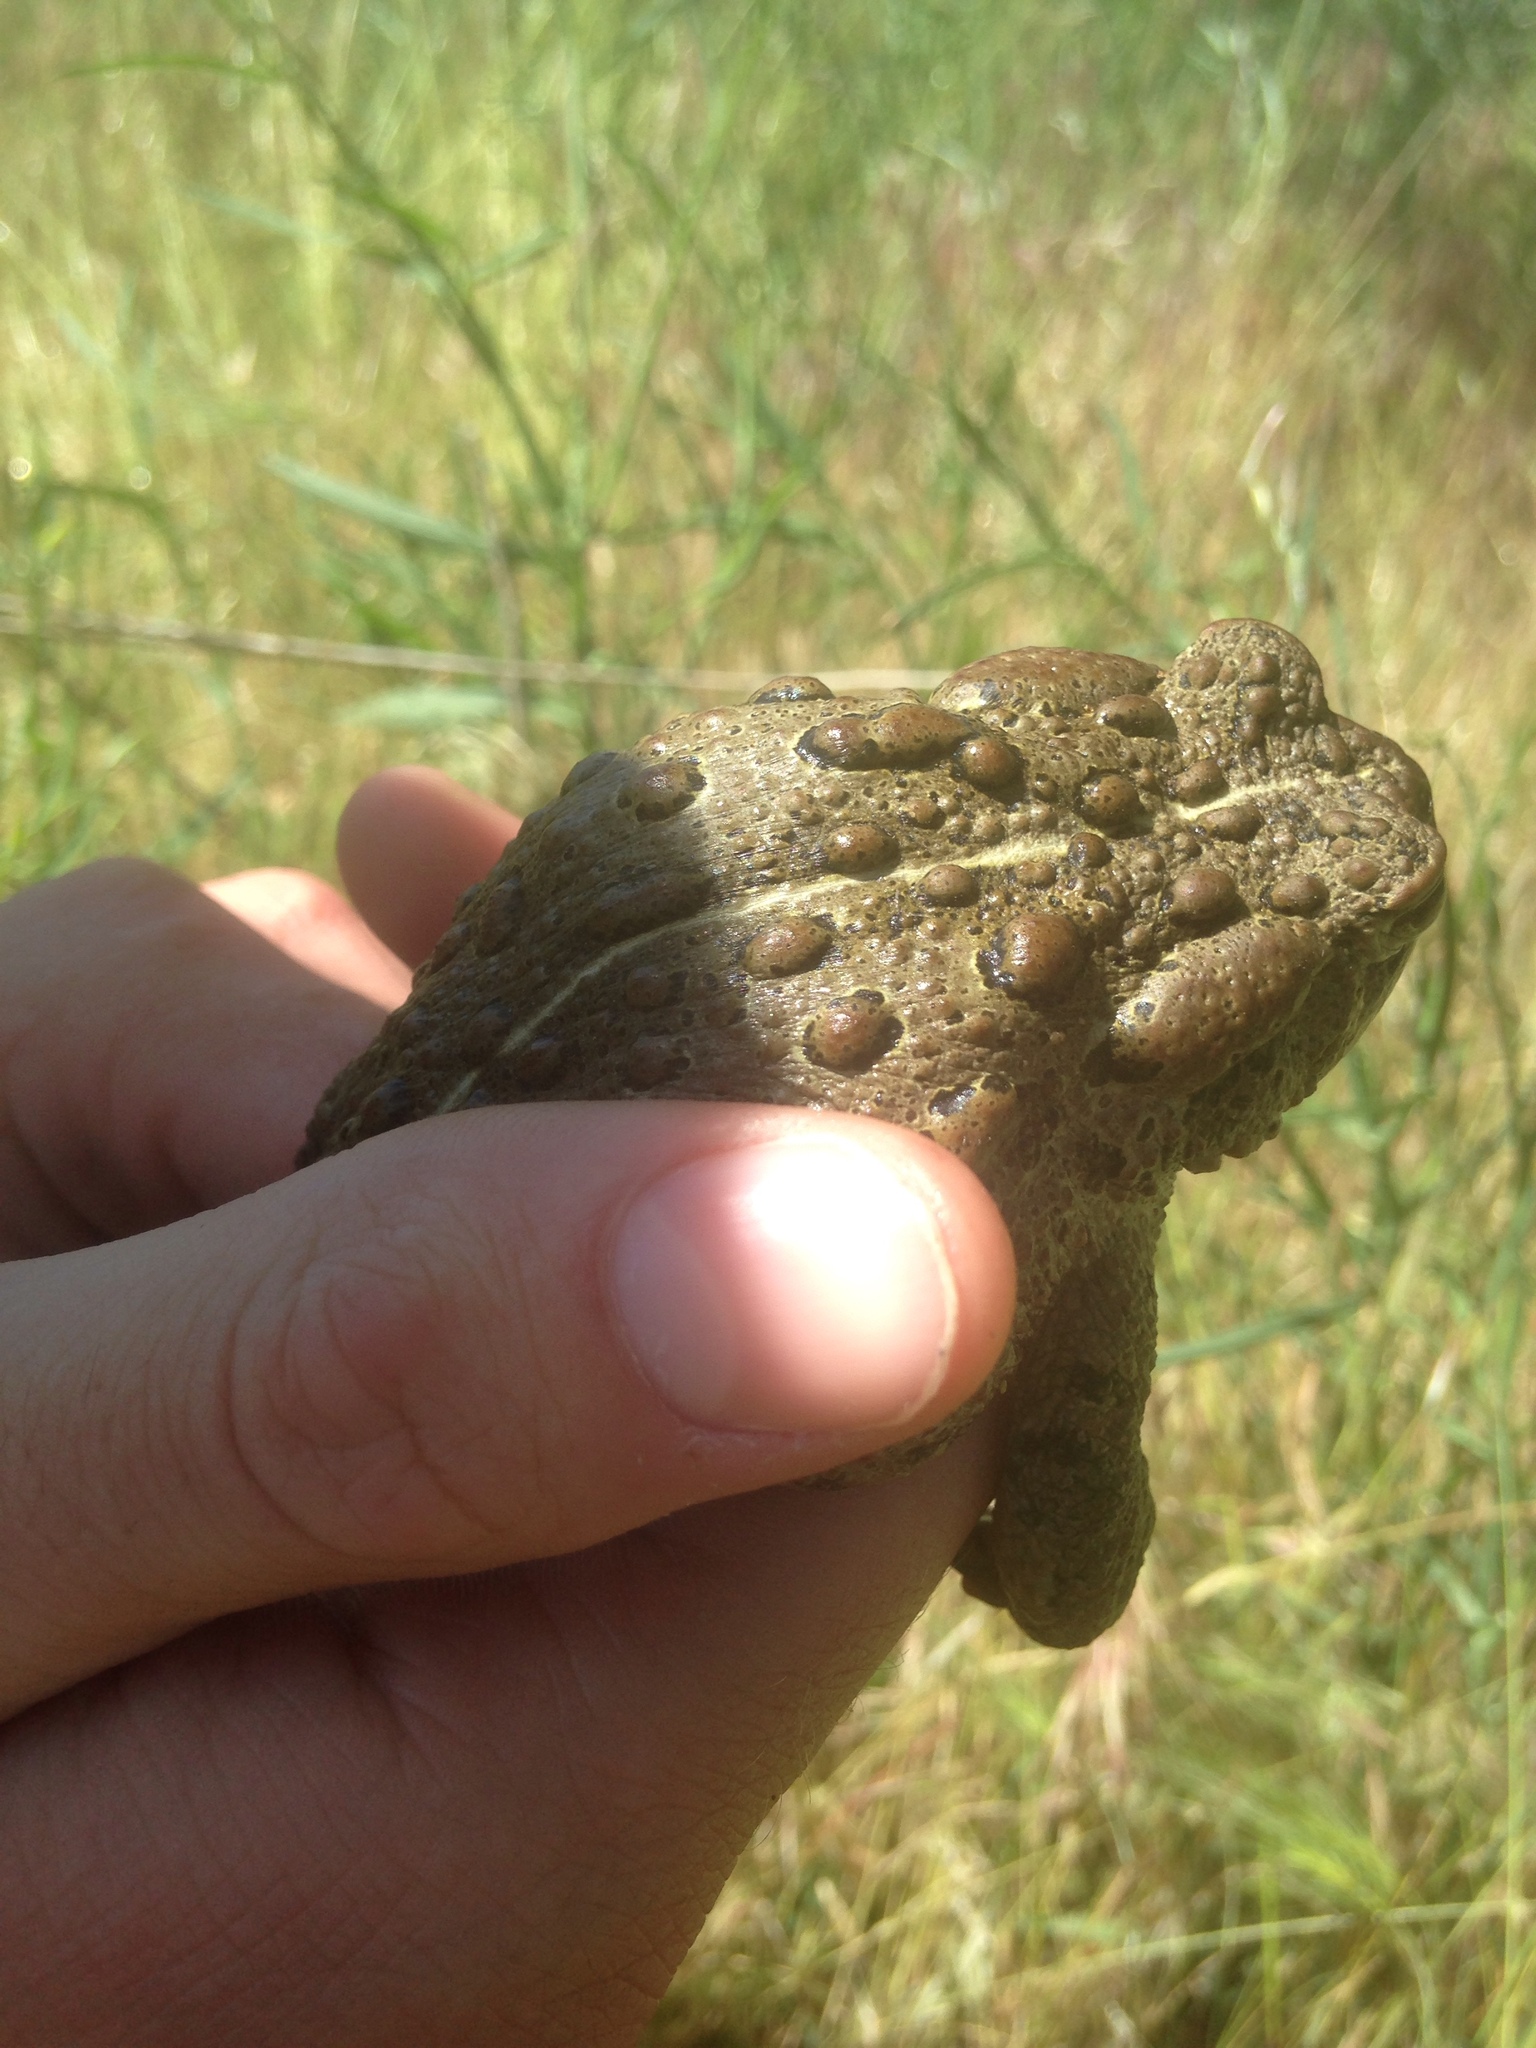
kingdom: Animalia
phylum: Chordata
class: Amphibia
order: Anura
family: Bufonidae
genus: Anaxyrus
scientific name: Anaxyrus boreas
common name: Western toad
